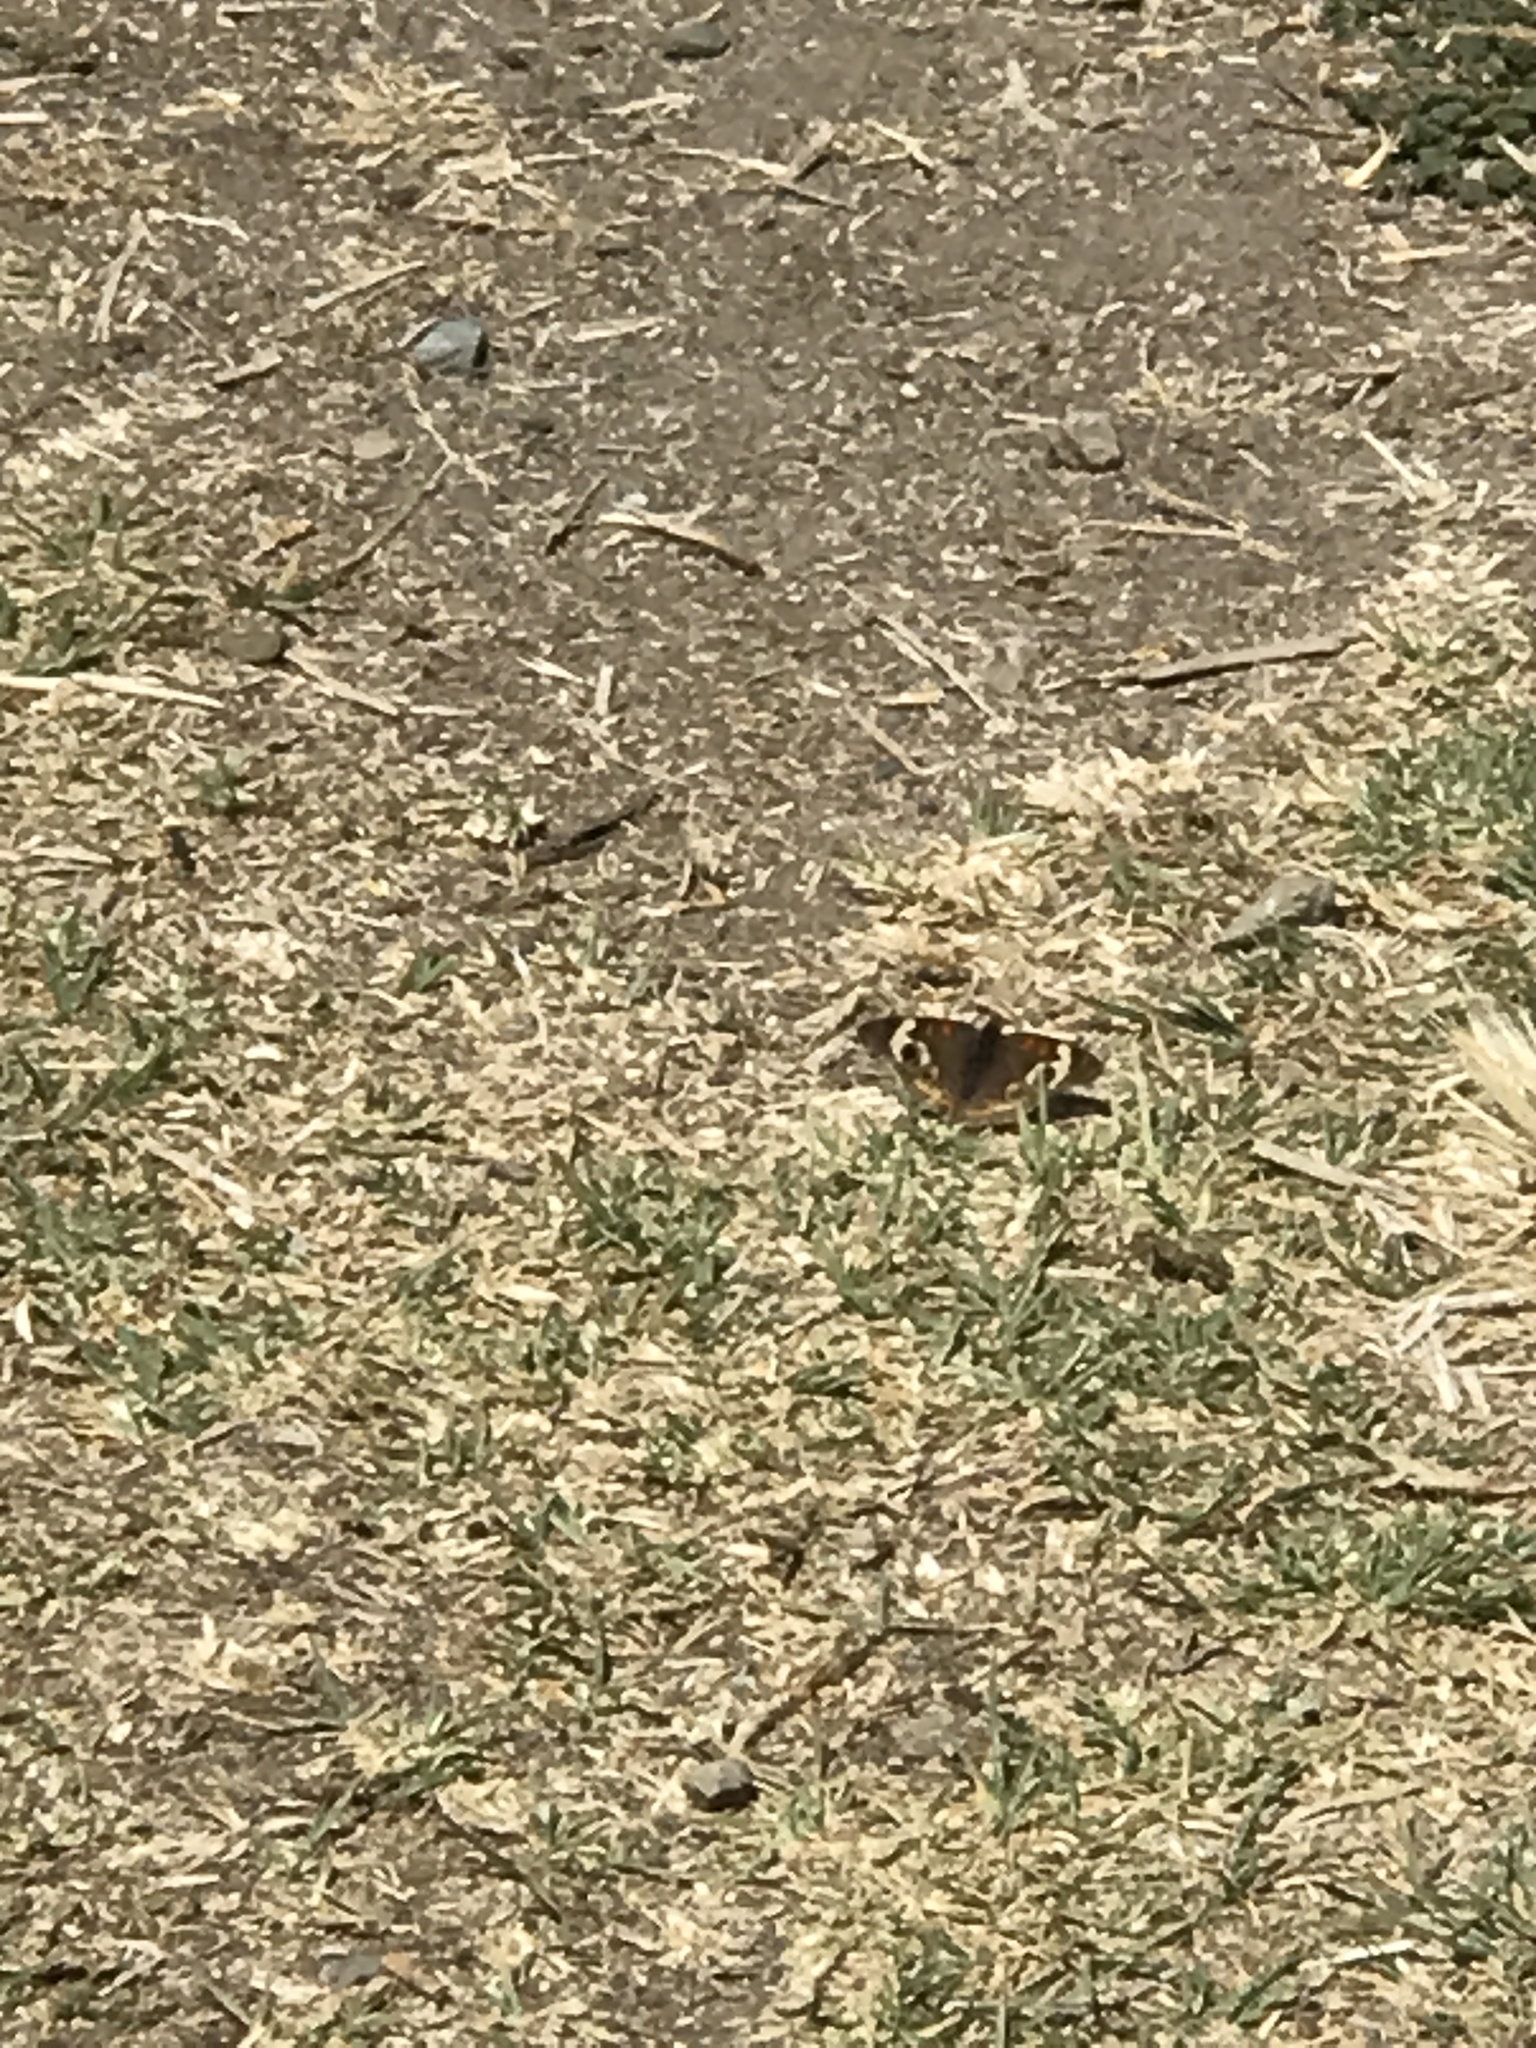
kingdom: Animalia
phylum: Arthropoda
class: Insecta
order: Lepidoptera
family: Nymphalidae
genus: Junonia
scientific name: Junonia grisea
